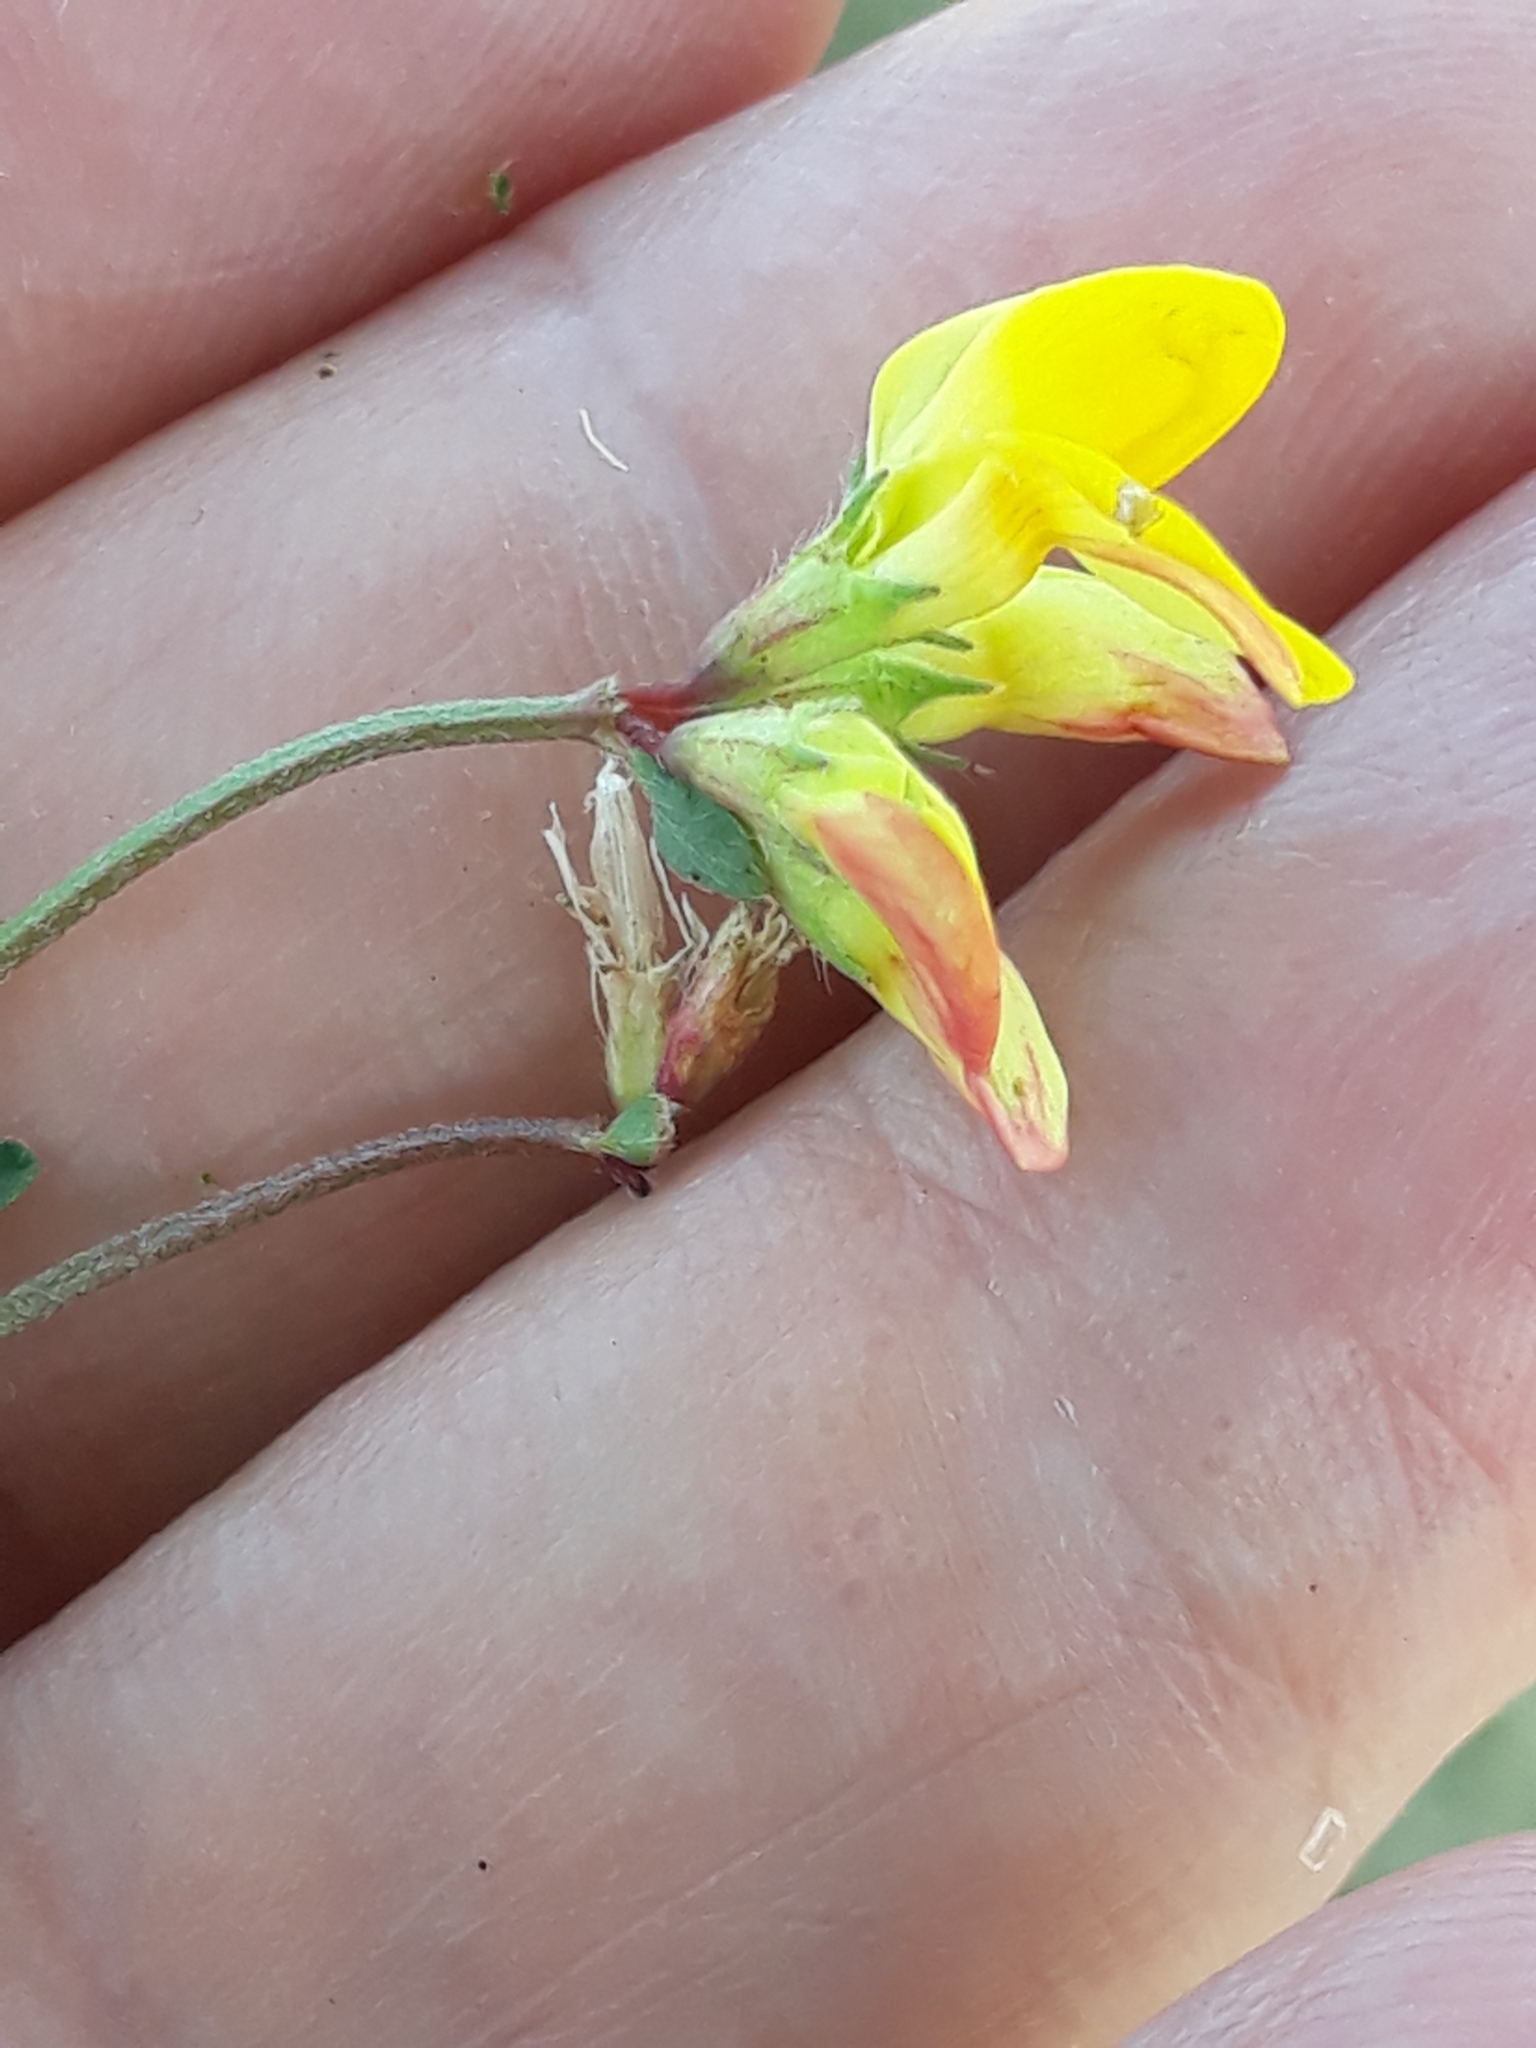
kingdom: Plantae
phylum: Tracheophyta
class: Magnoliopsida
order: Fabales
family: Fabaceae
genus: Lotus
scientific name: Lotus corniculatus
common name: Common bird's-foot-trefoil
